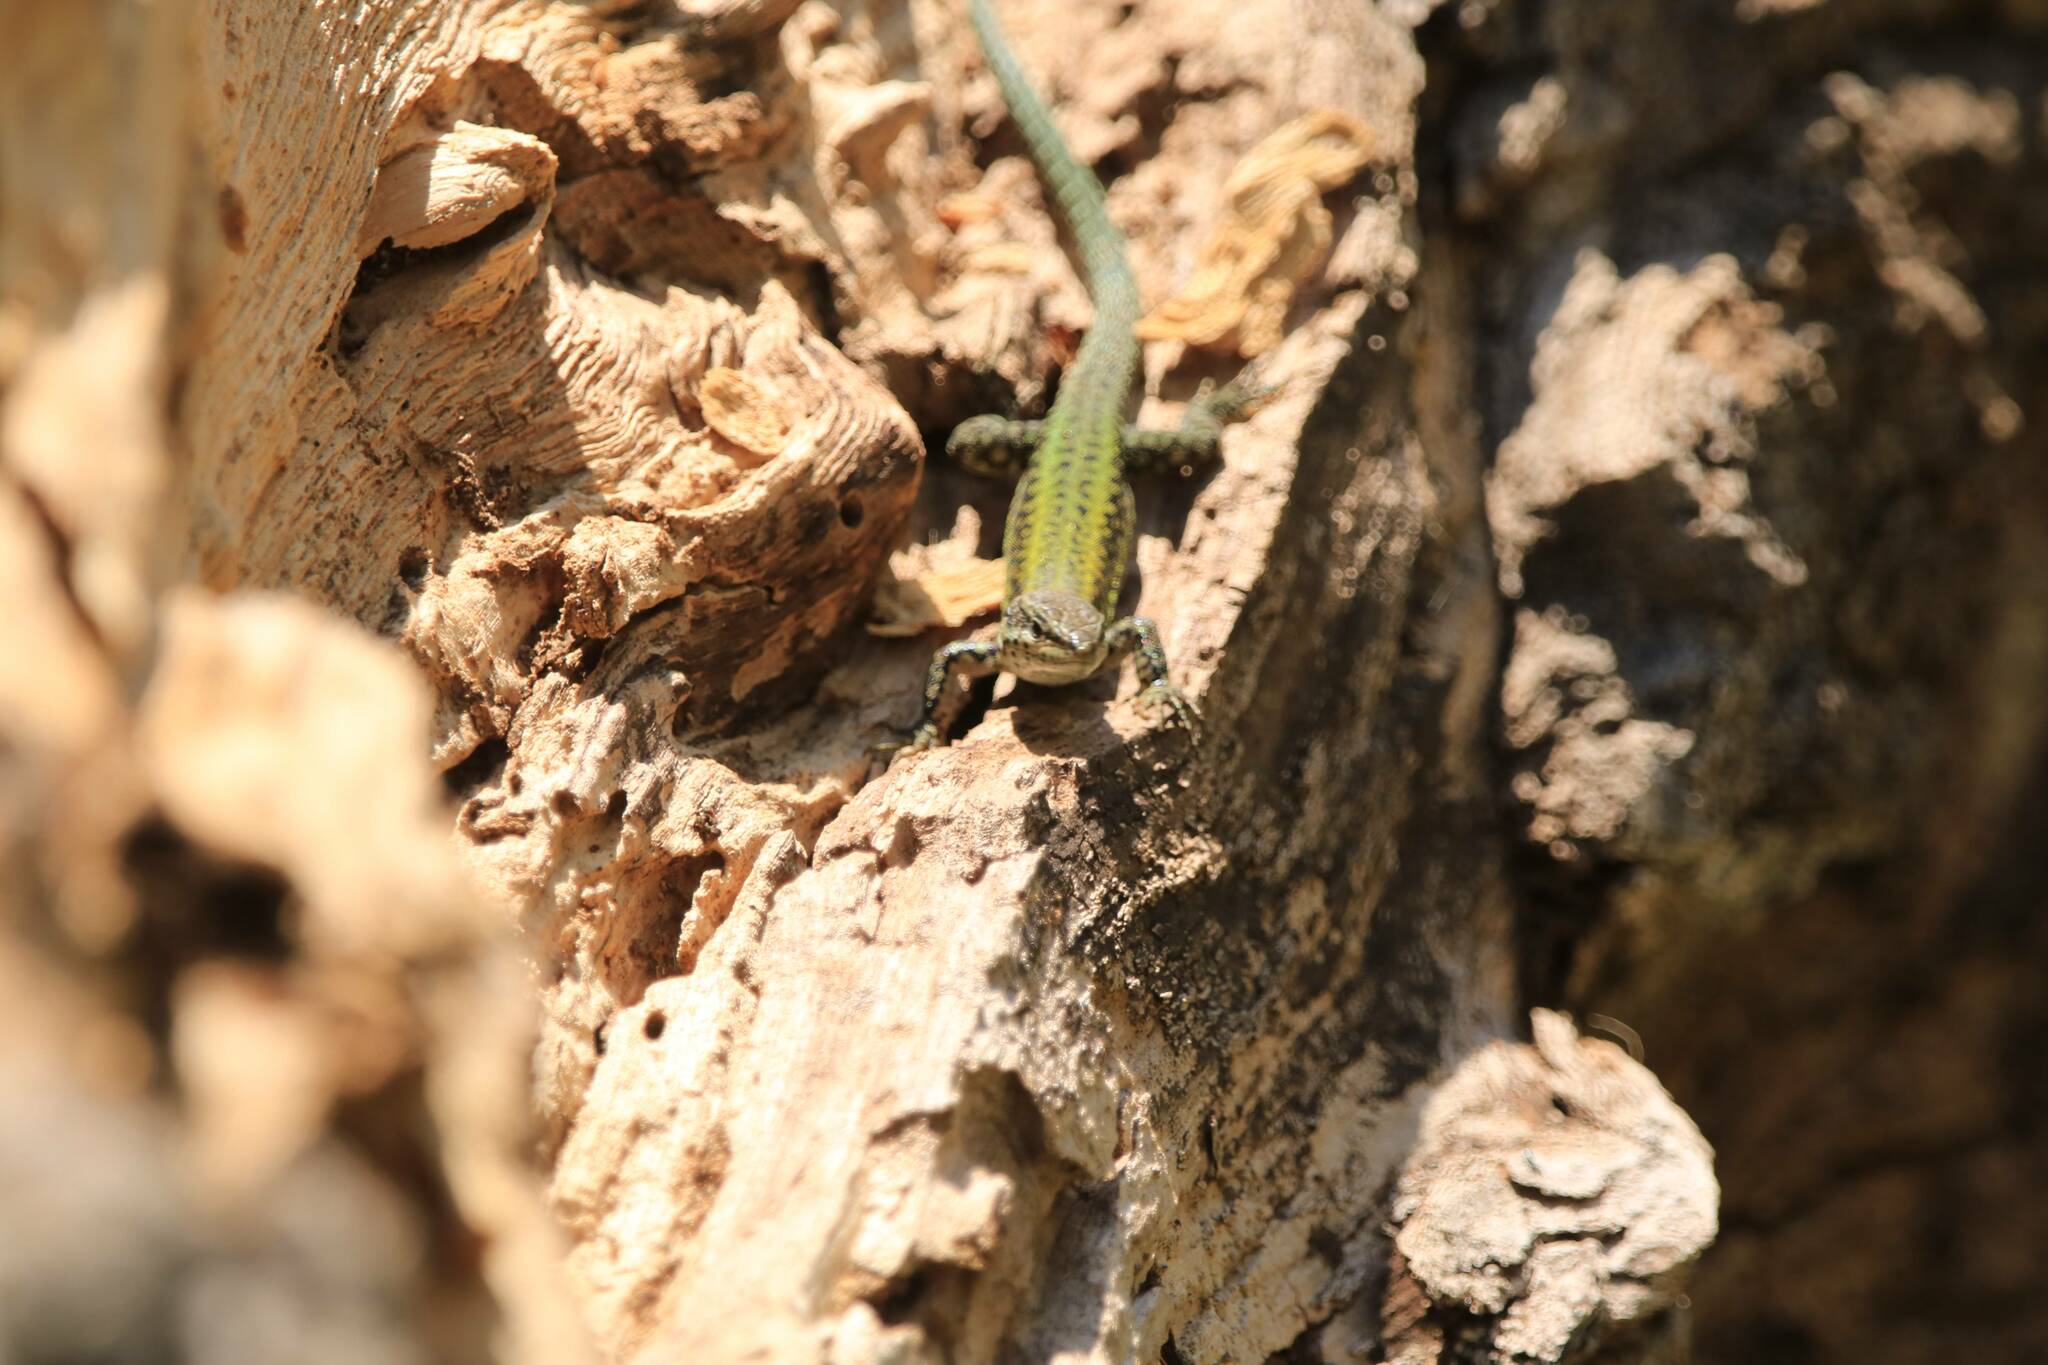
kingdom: Animalia
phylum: Chordata
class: Squamata
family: Lacertidae
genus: Podarcis
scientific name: Podarcis vaucheri
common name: Vaucher's wall lizard
